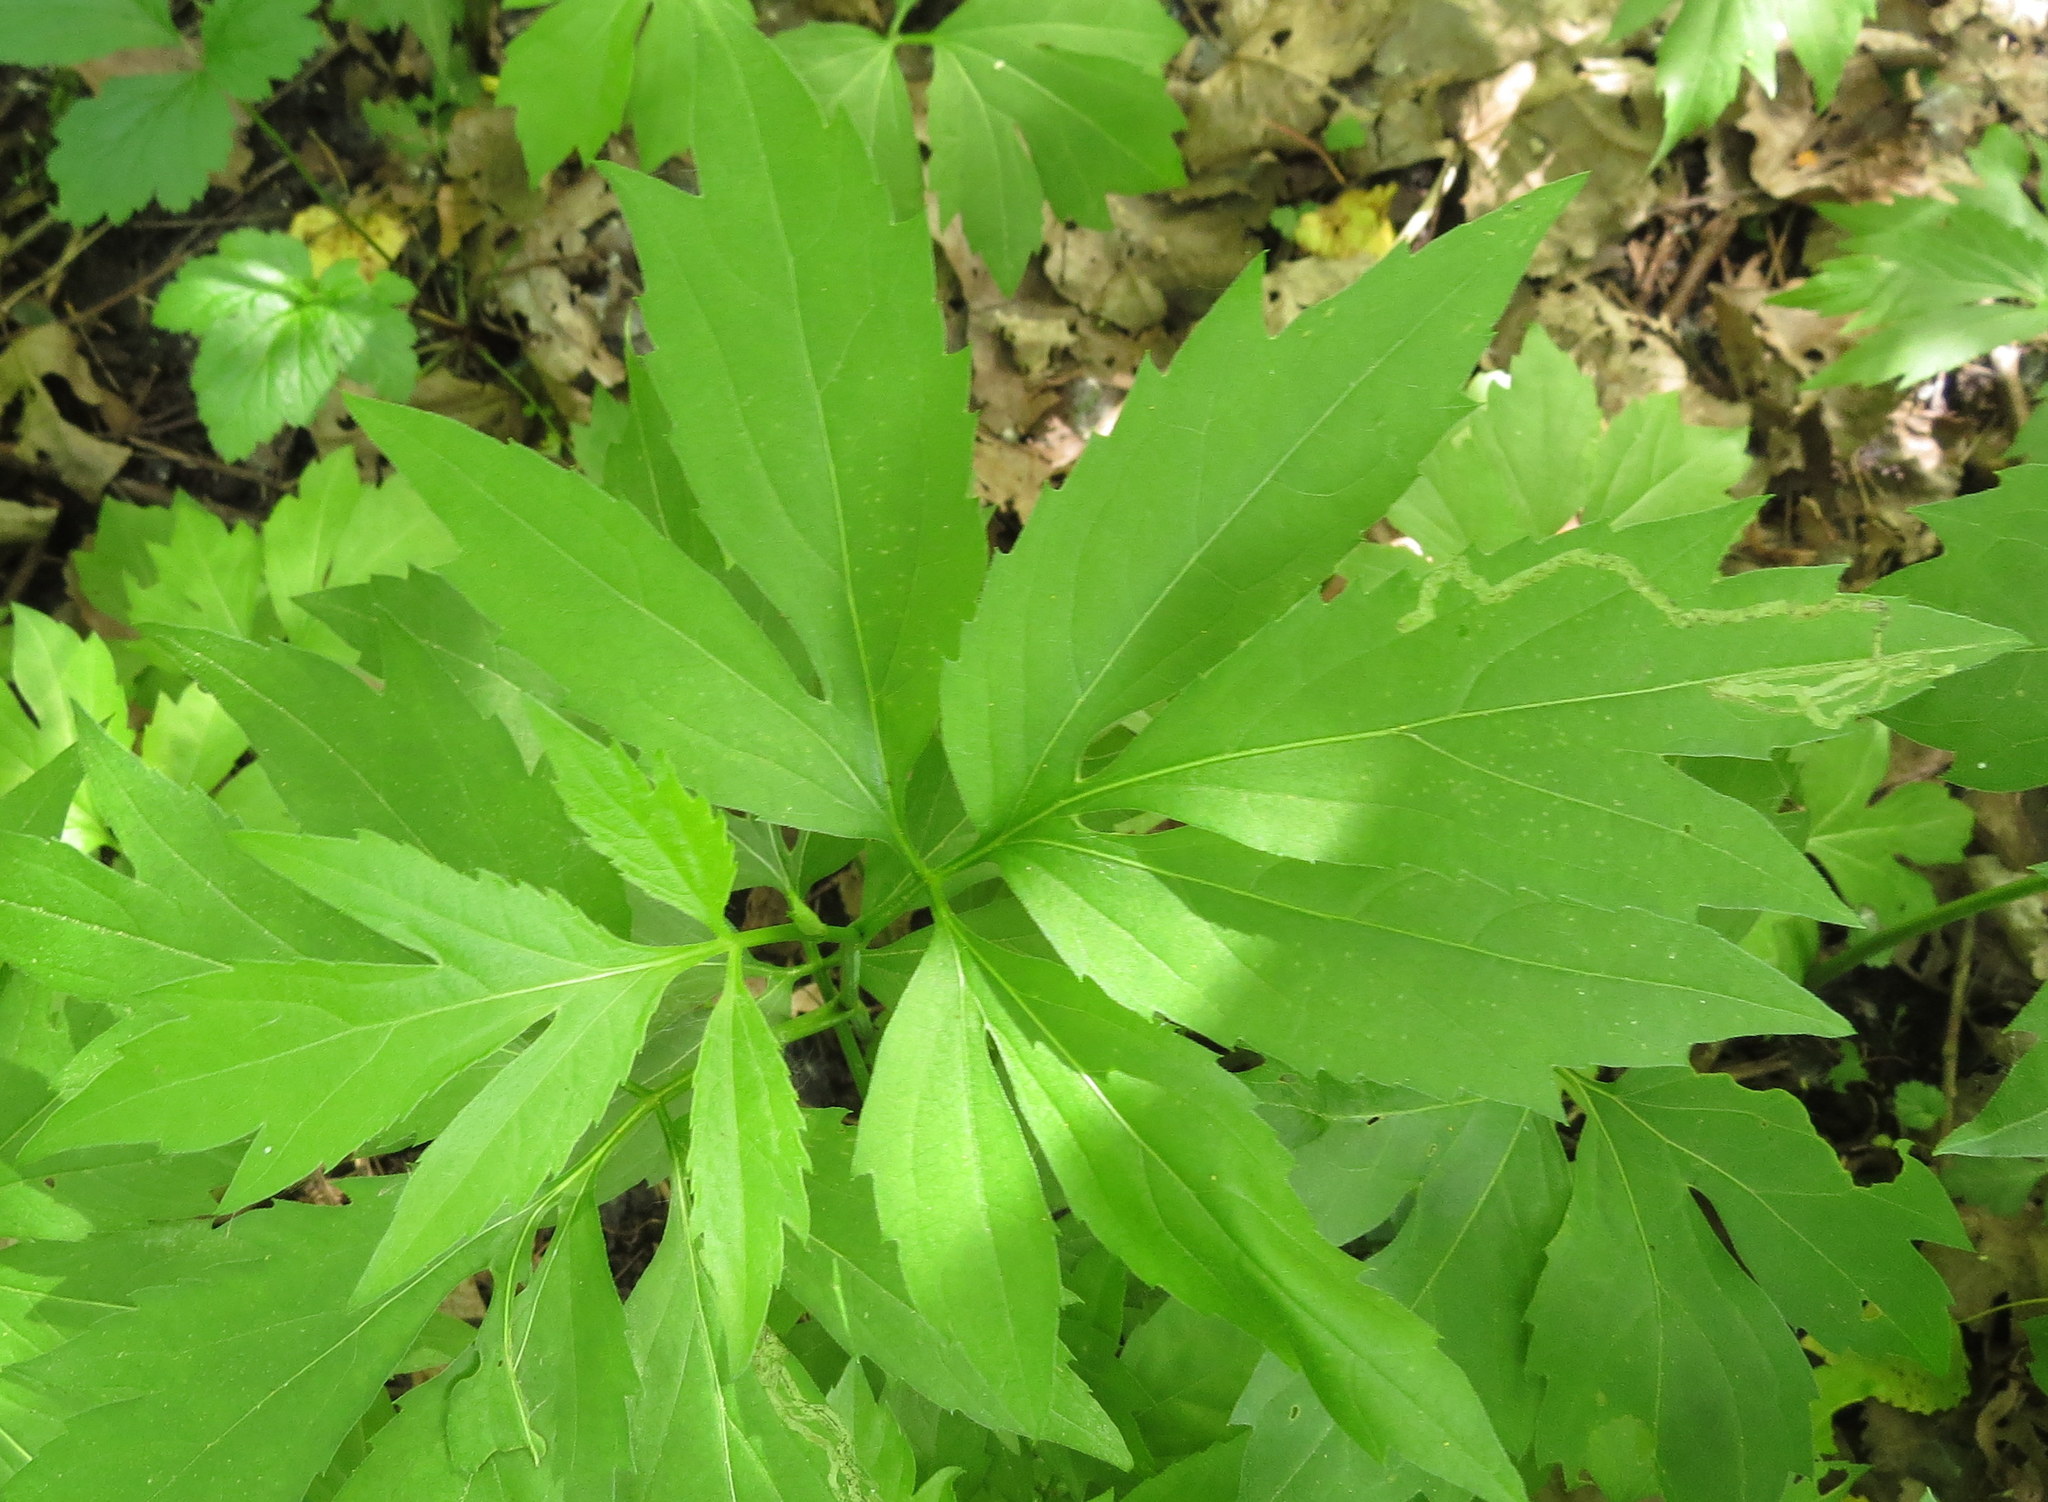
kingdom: Plantae
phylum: Tracheophyta
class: Magnoliopsida
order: Asterales
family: Asteraceae
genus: Rudbeckia
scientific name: Rudbeckia laciniata
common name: Coneflower
